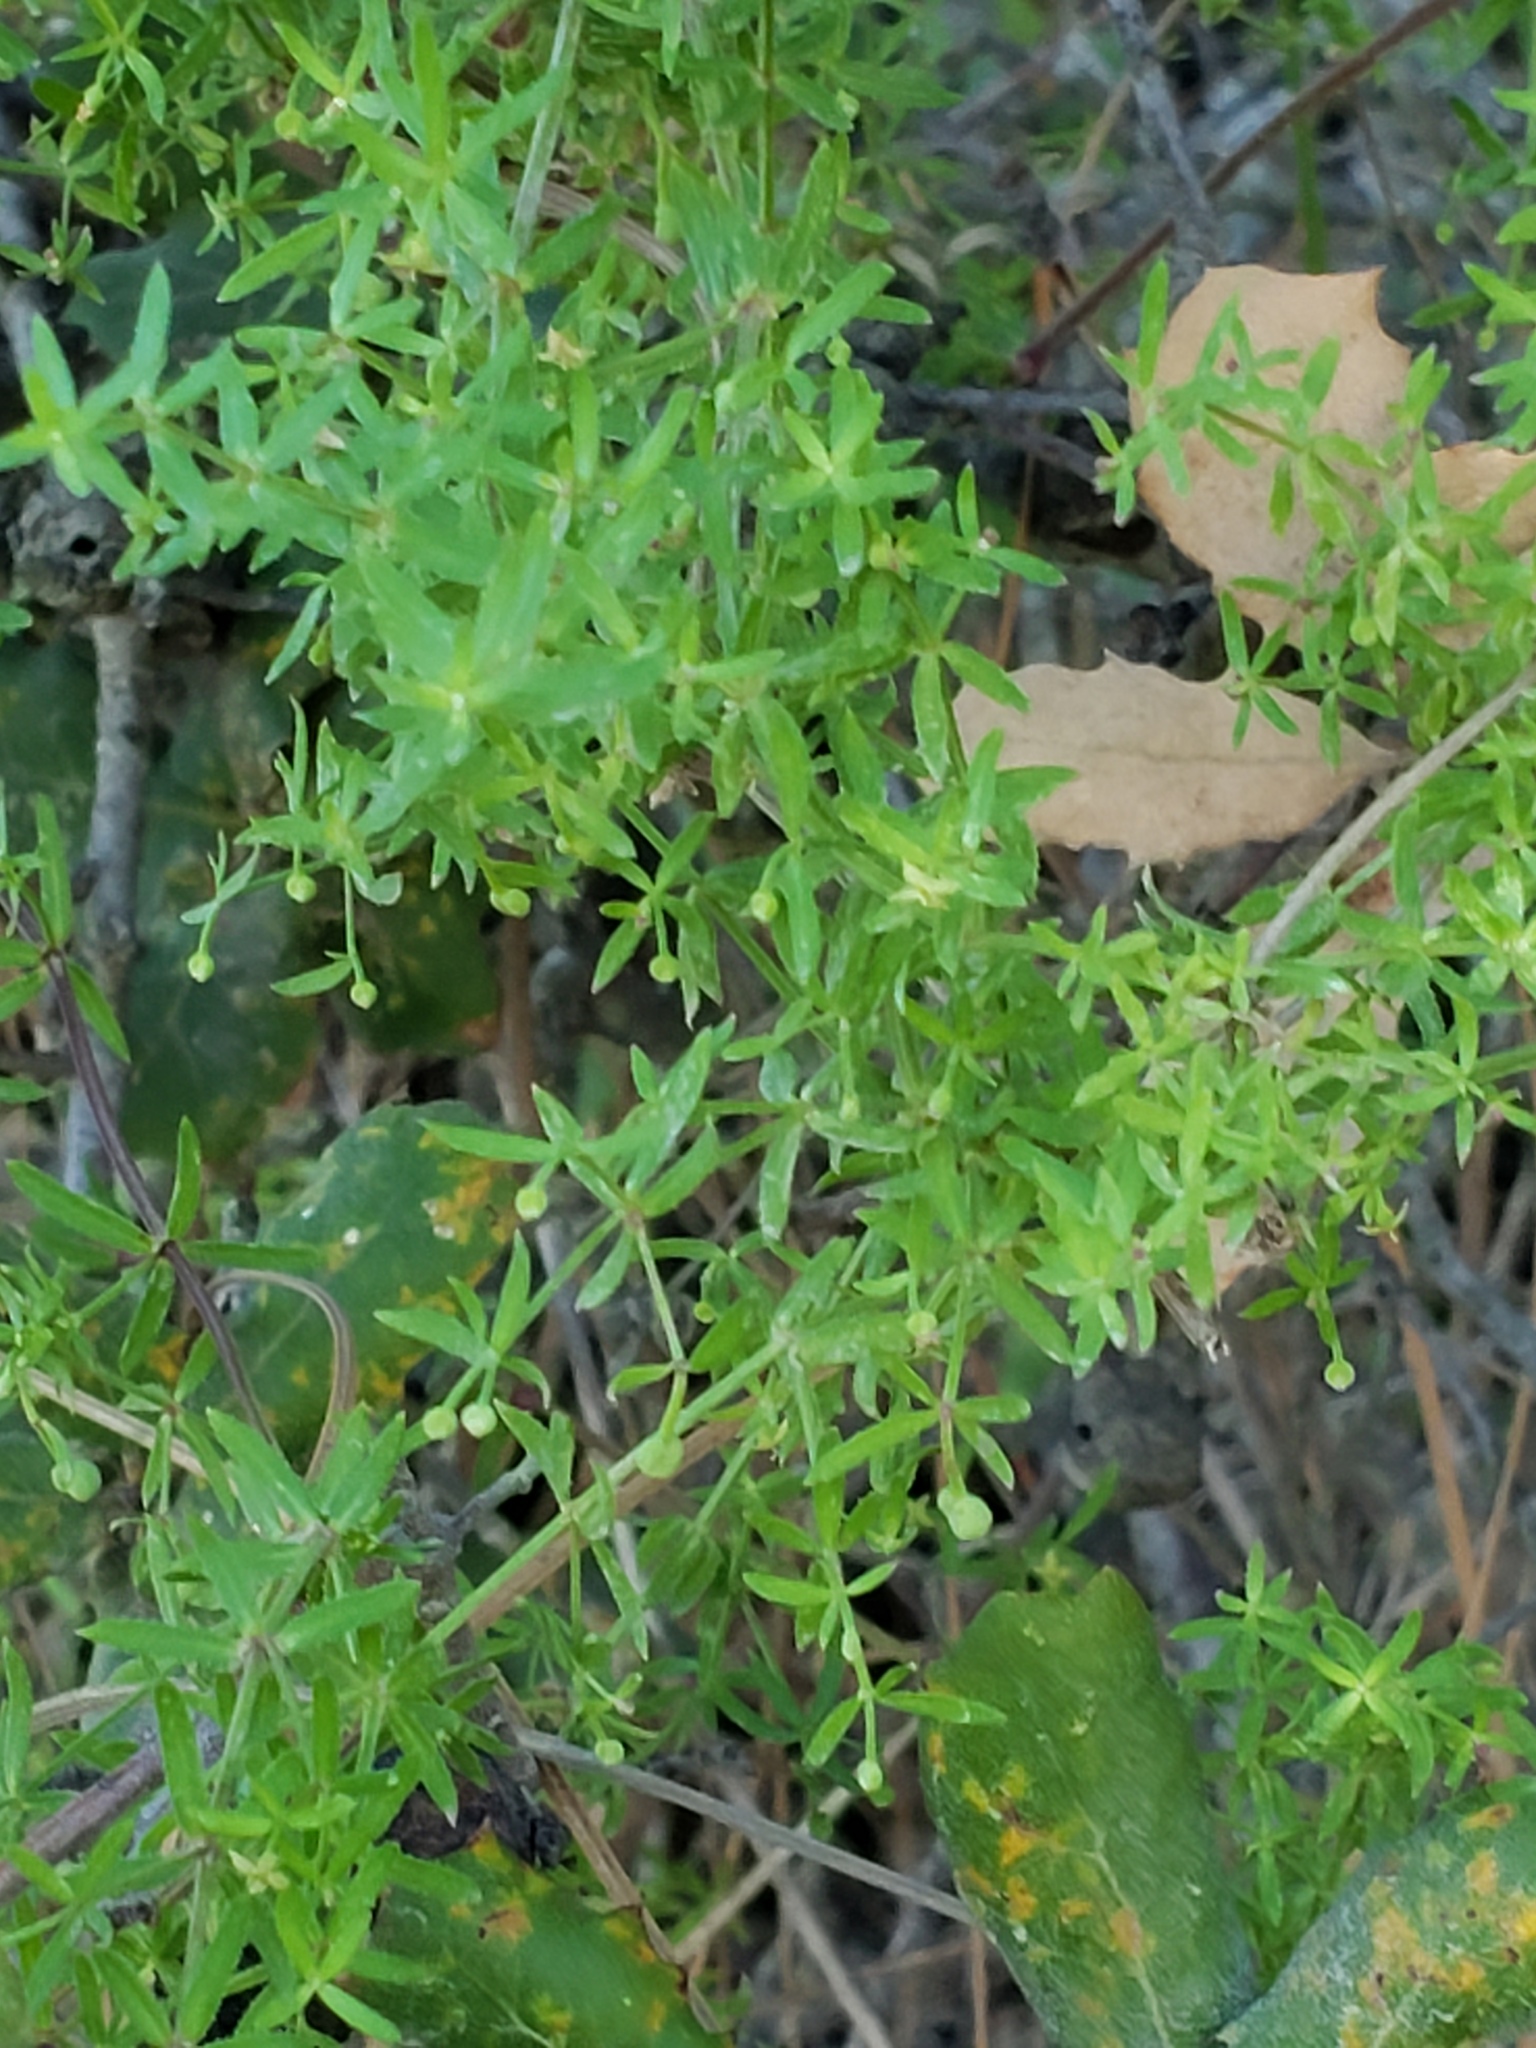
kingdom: Plantae
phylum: Tracheophyta
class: Magnoliopsida
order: Gentianales
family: Rubiaceae
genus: Galium
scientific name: Galium porrigens
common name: Climbing bedstraw
